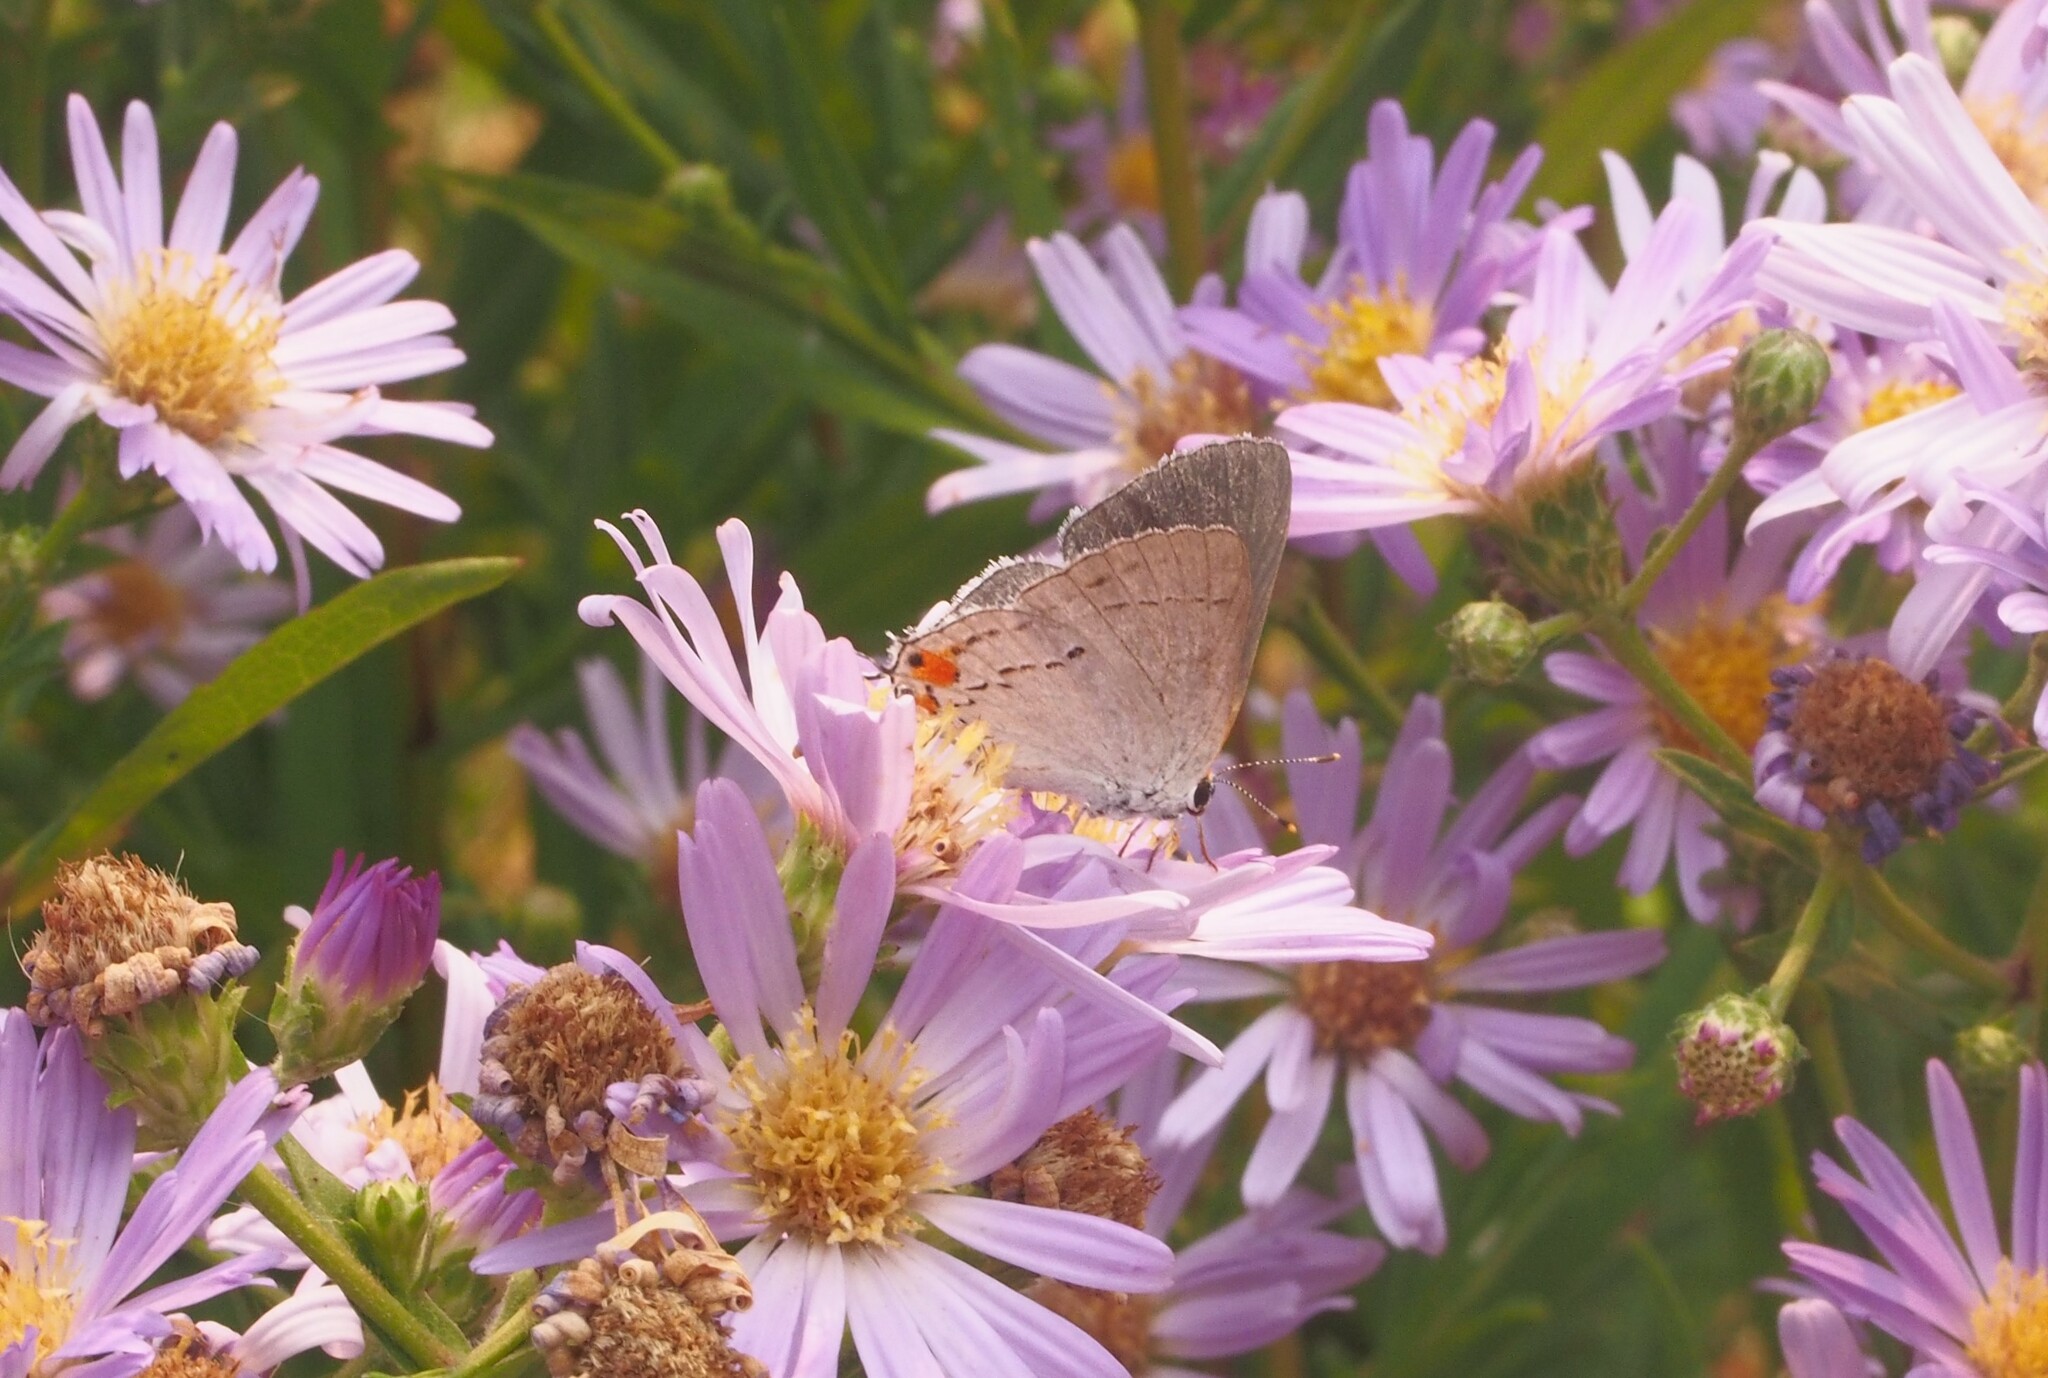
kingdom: Animalia
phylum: Arthropoda
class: Insecta
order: Lepidoptera
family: Lycaenidae
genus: Strymon
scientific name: Strymon melinus
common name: Gray hairstreak
